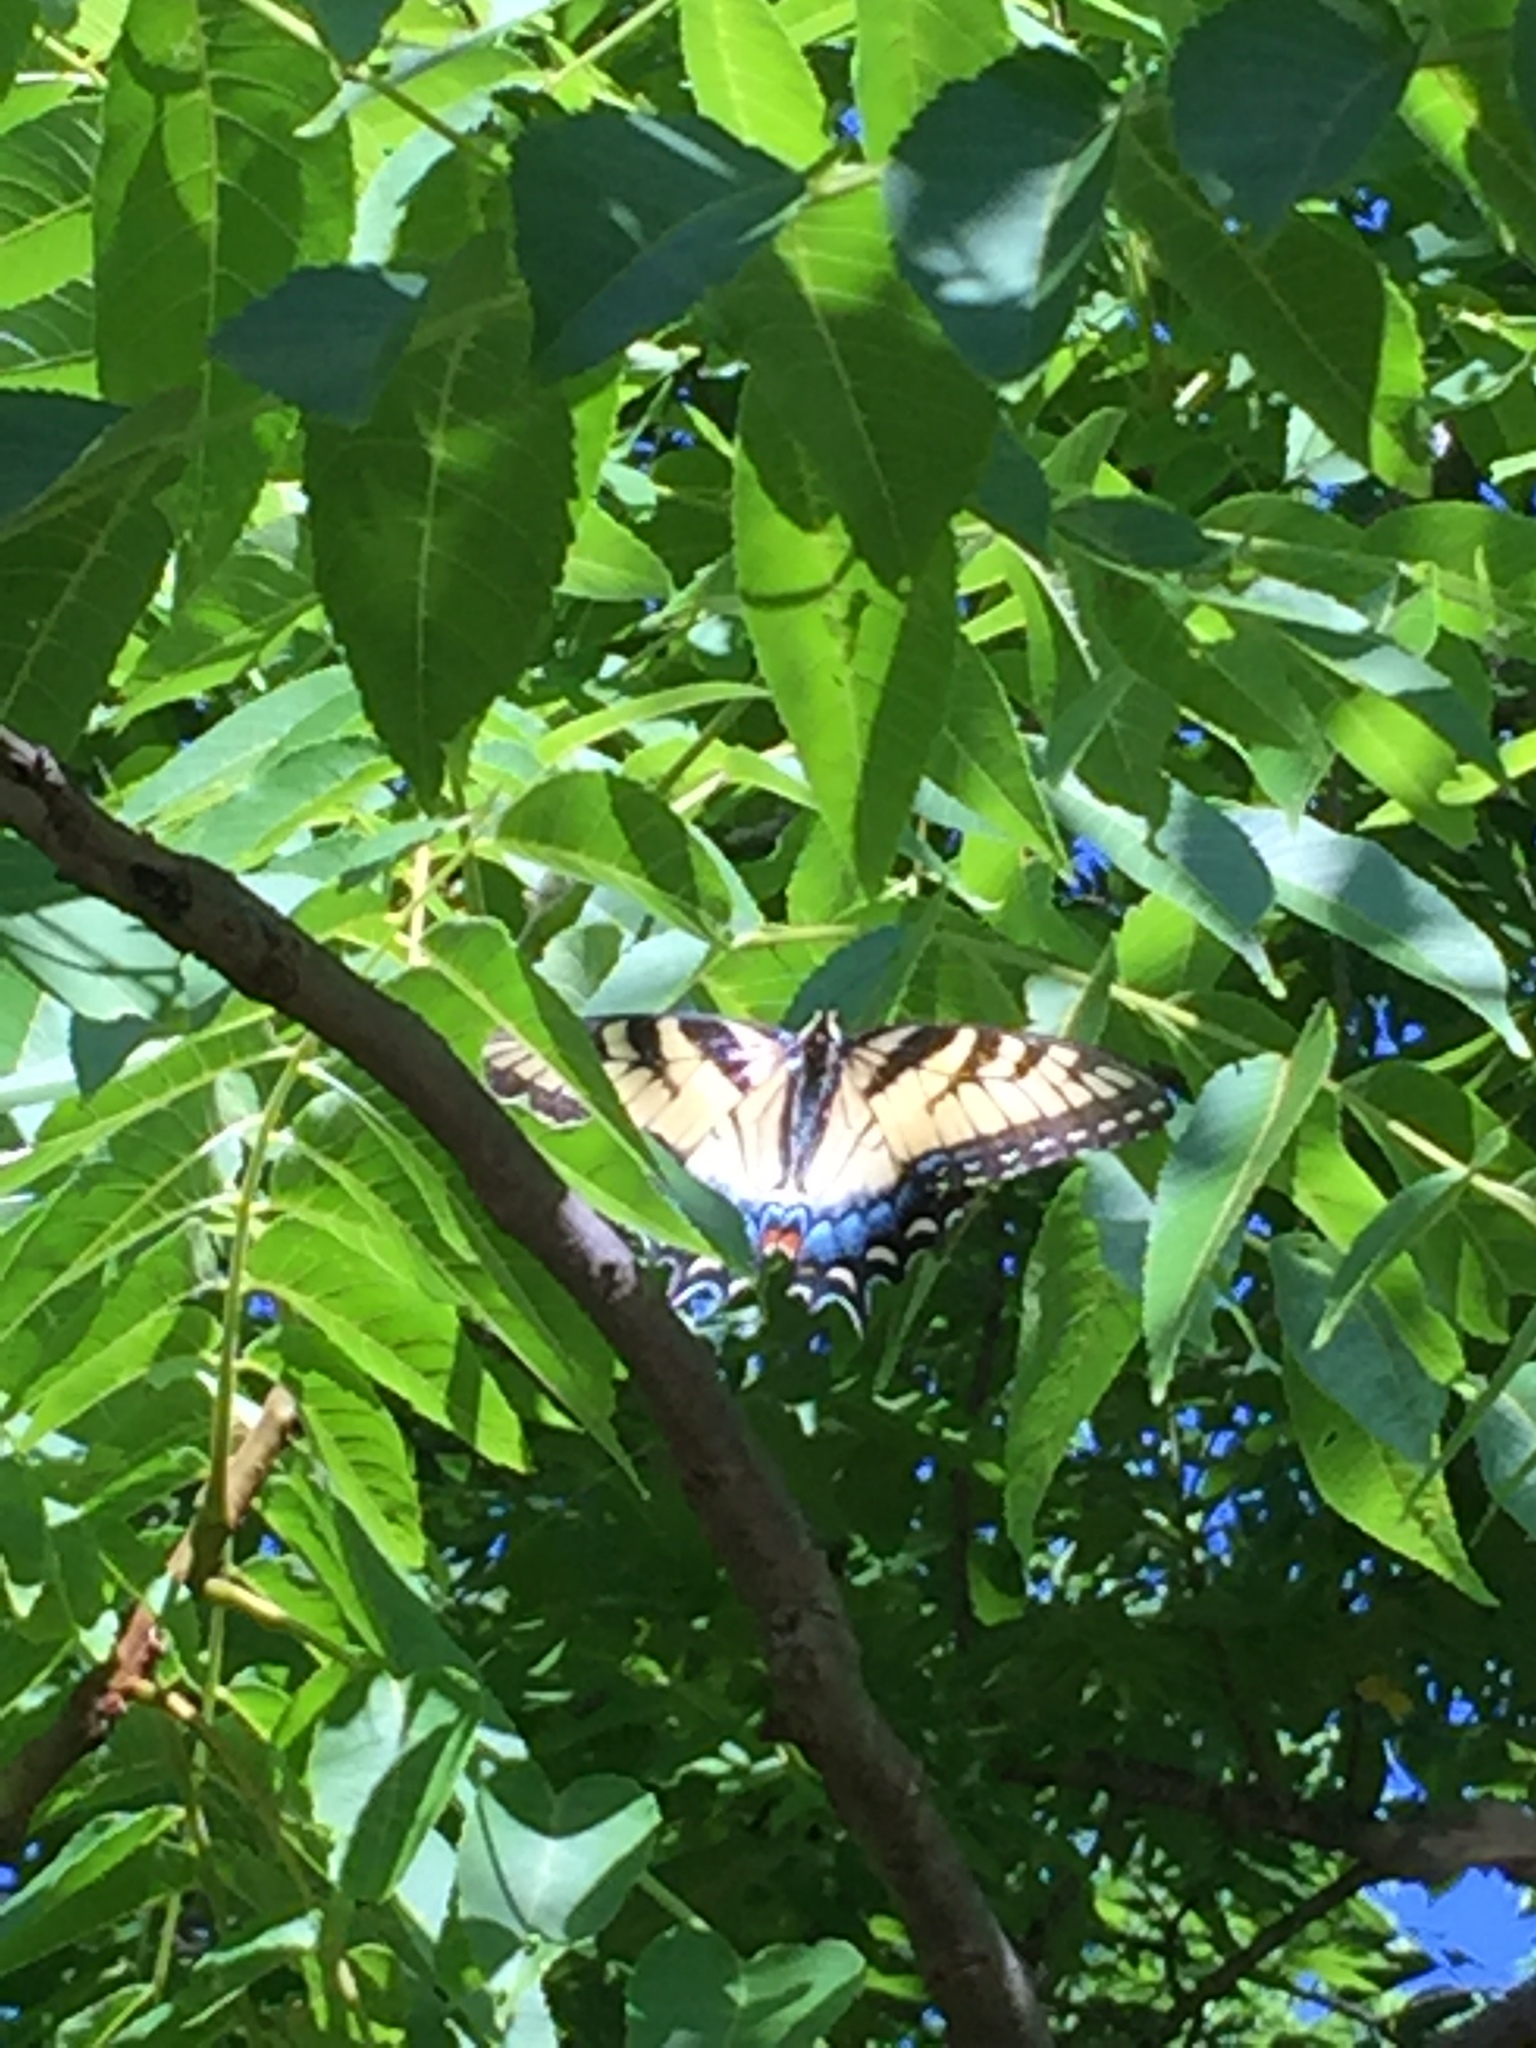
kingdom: Animalia
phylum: Arthropoda
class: Insecta
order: Lepidoptera
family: Papilionidae
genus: Papilio
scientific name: Papilio glaucus
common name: Tiger swallowtail
